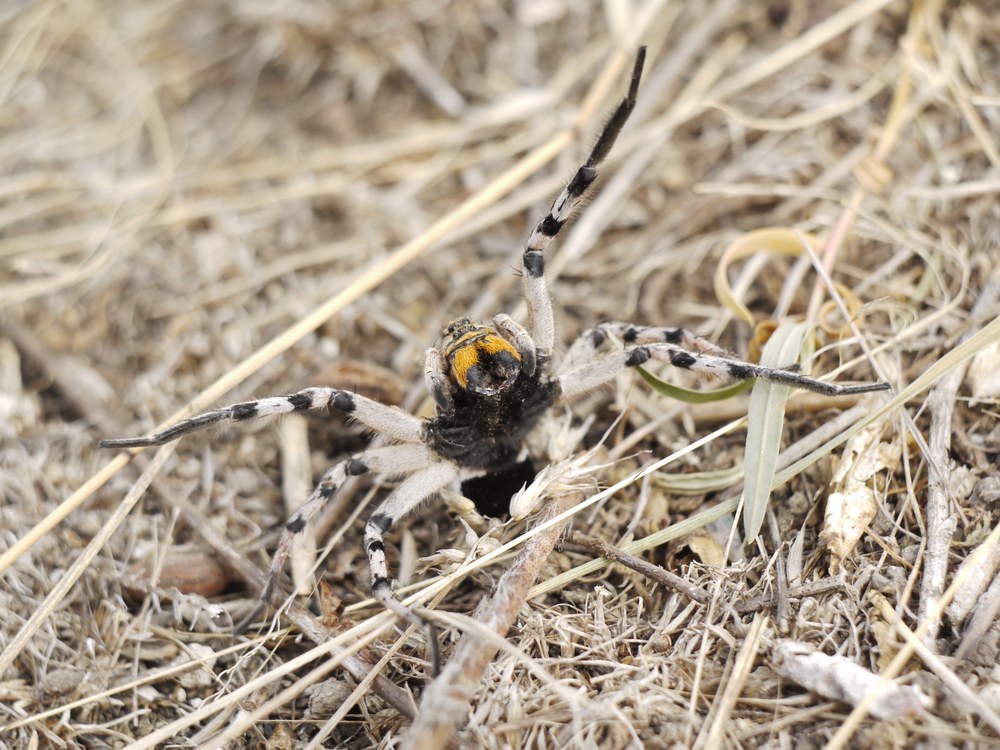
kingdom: Animalia
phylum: Arthropoda
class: Arachnida
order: Araneae
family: Lycosidae
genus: Geolycosa
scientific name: Geolycosa vultuosa
